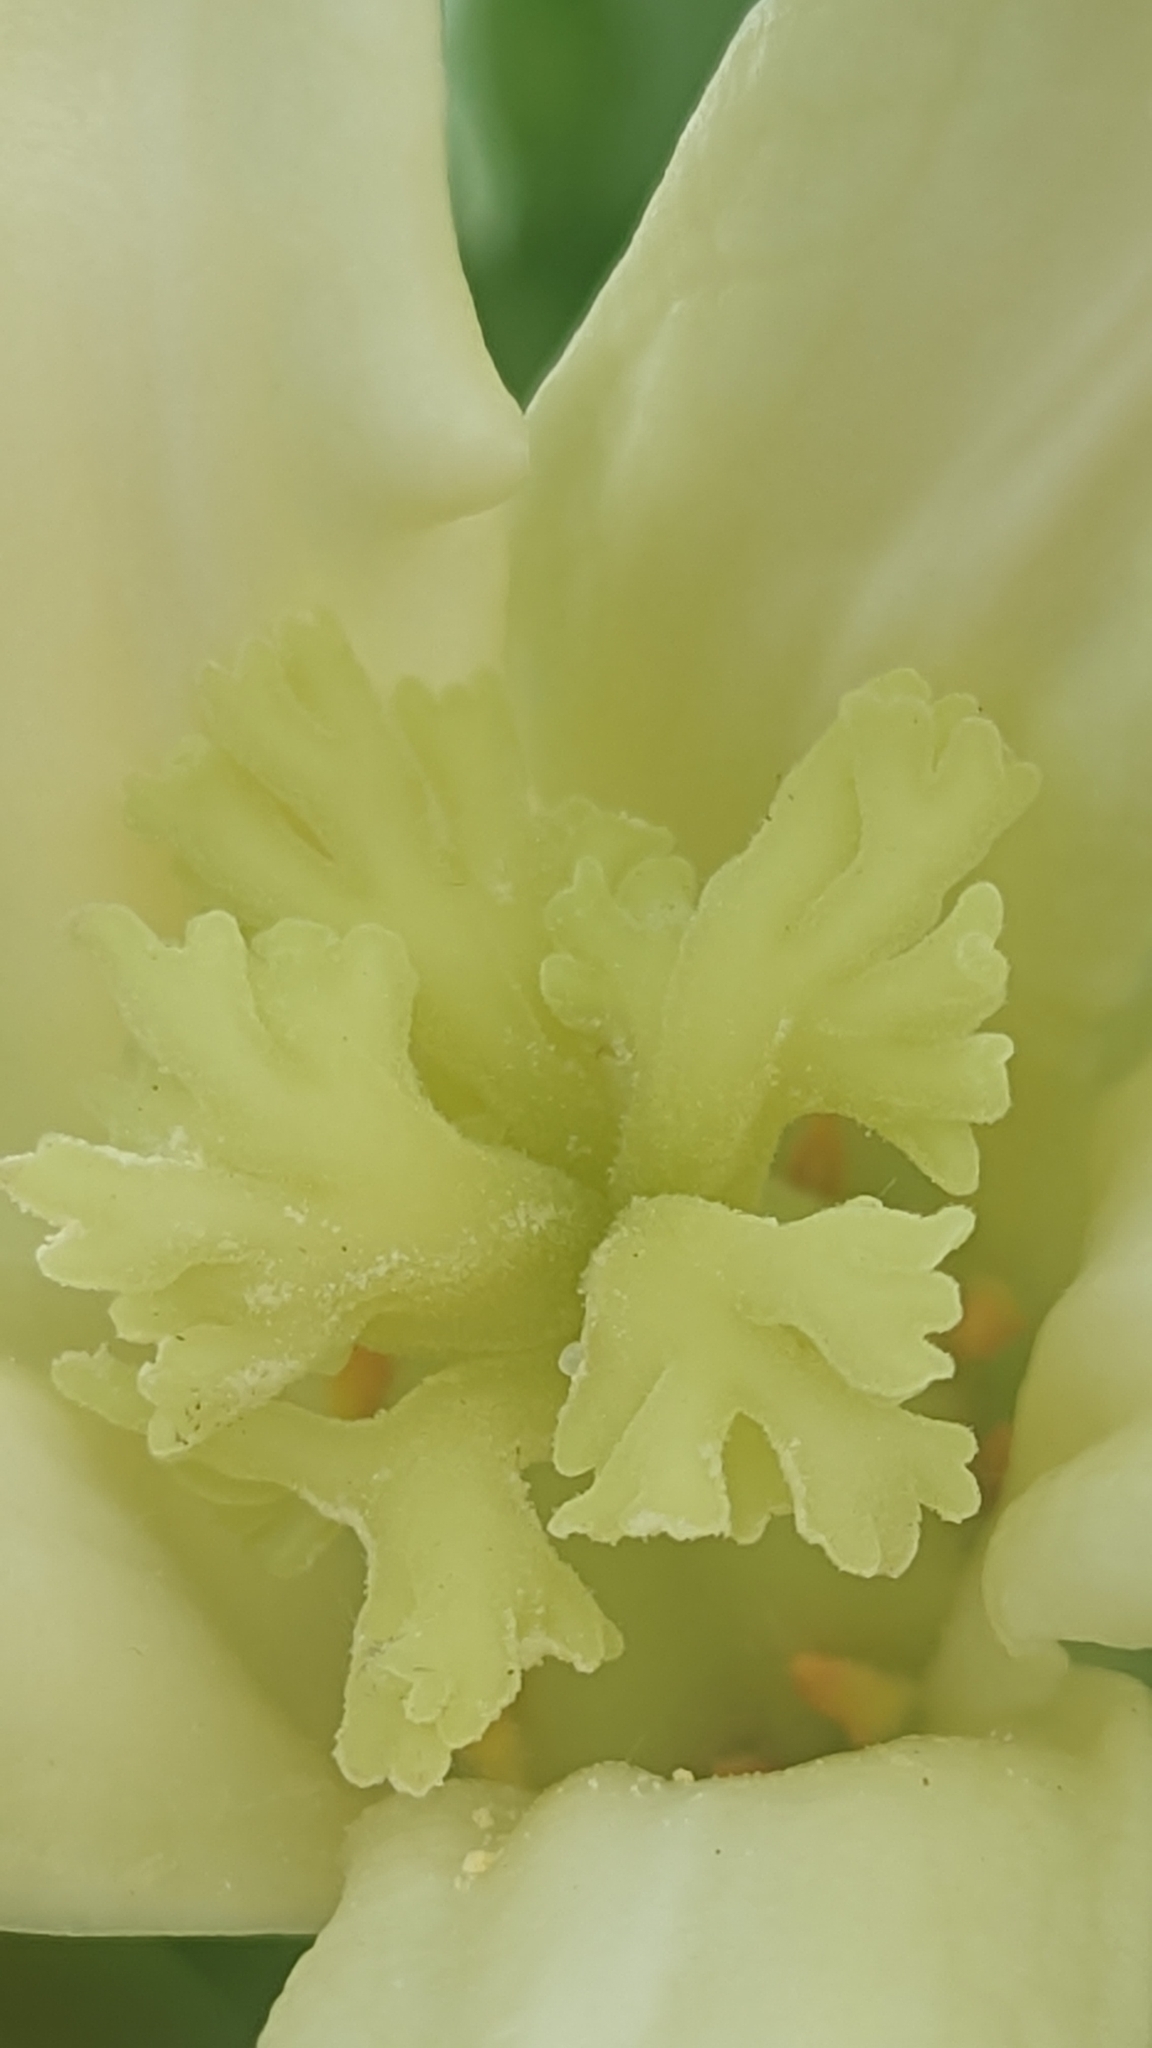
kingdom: Plantae
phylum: Tracheophyta
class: Magnoliopsida
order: Brassicales
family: Caricaceae
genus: Carica
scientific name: Carica papaya
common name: Papaya
